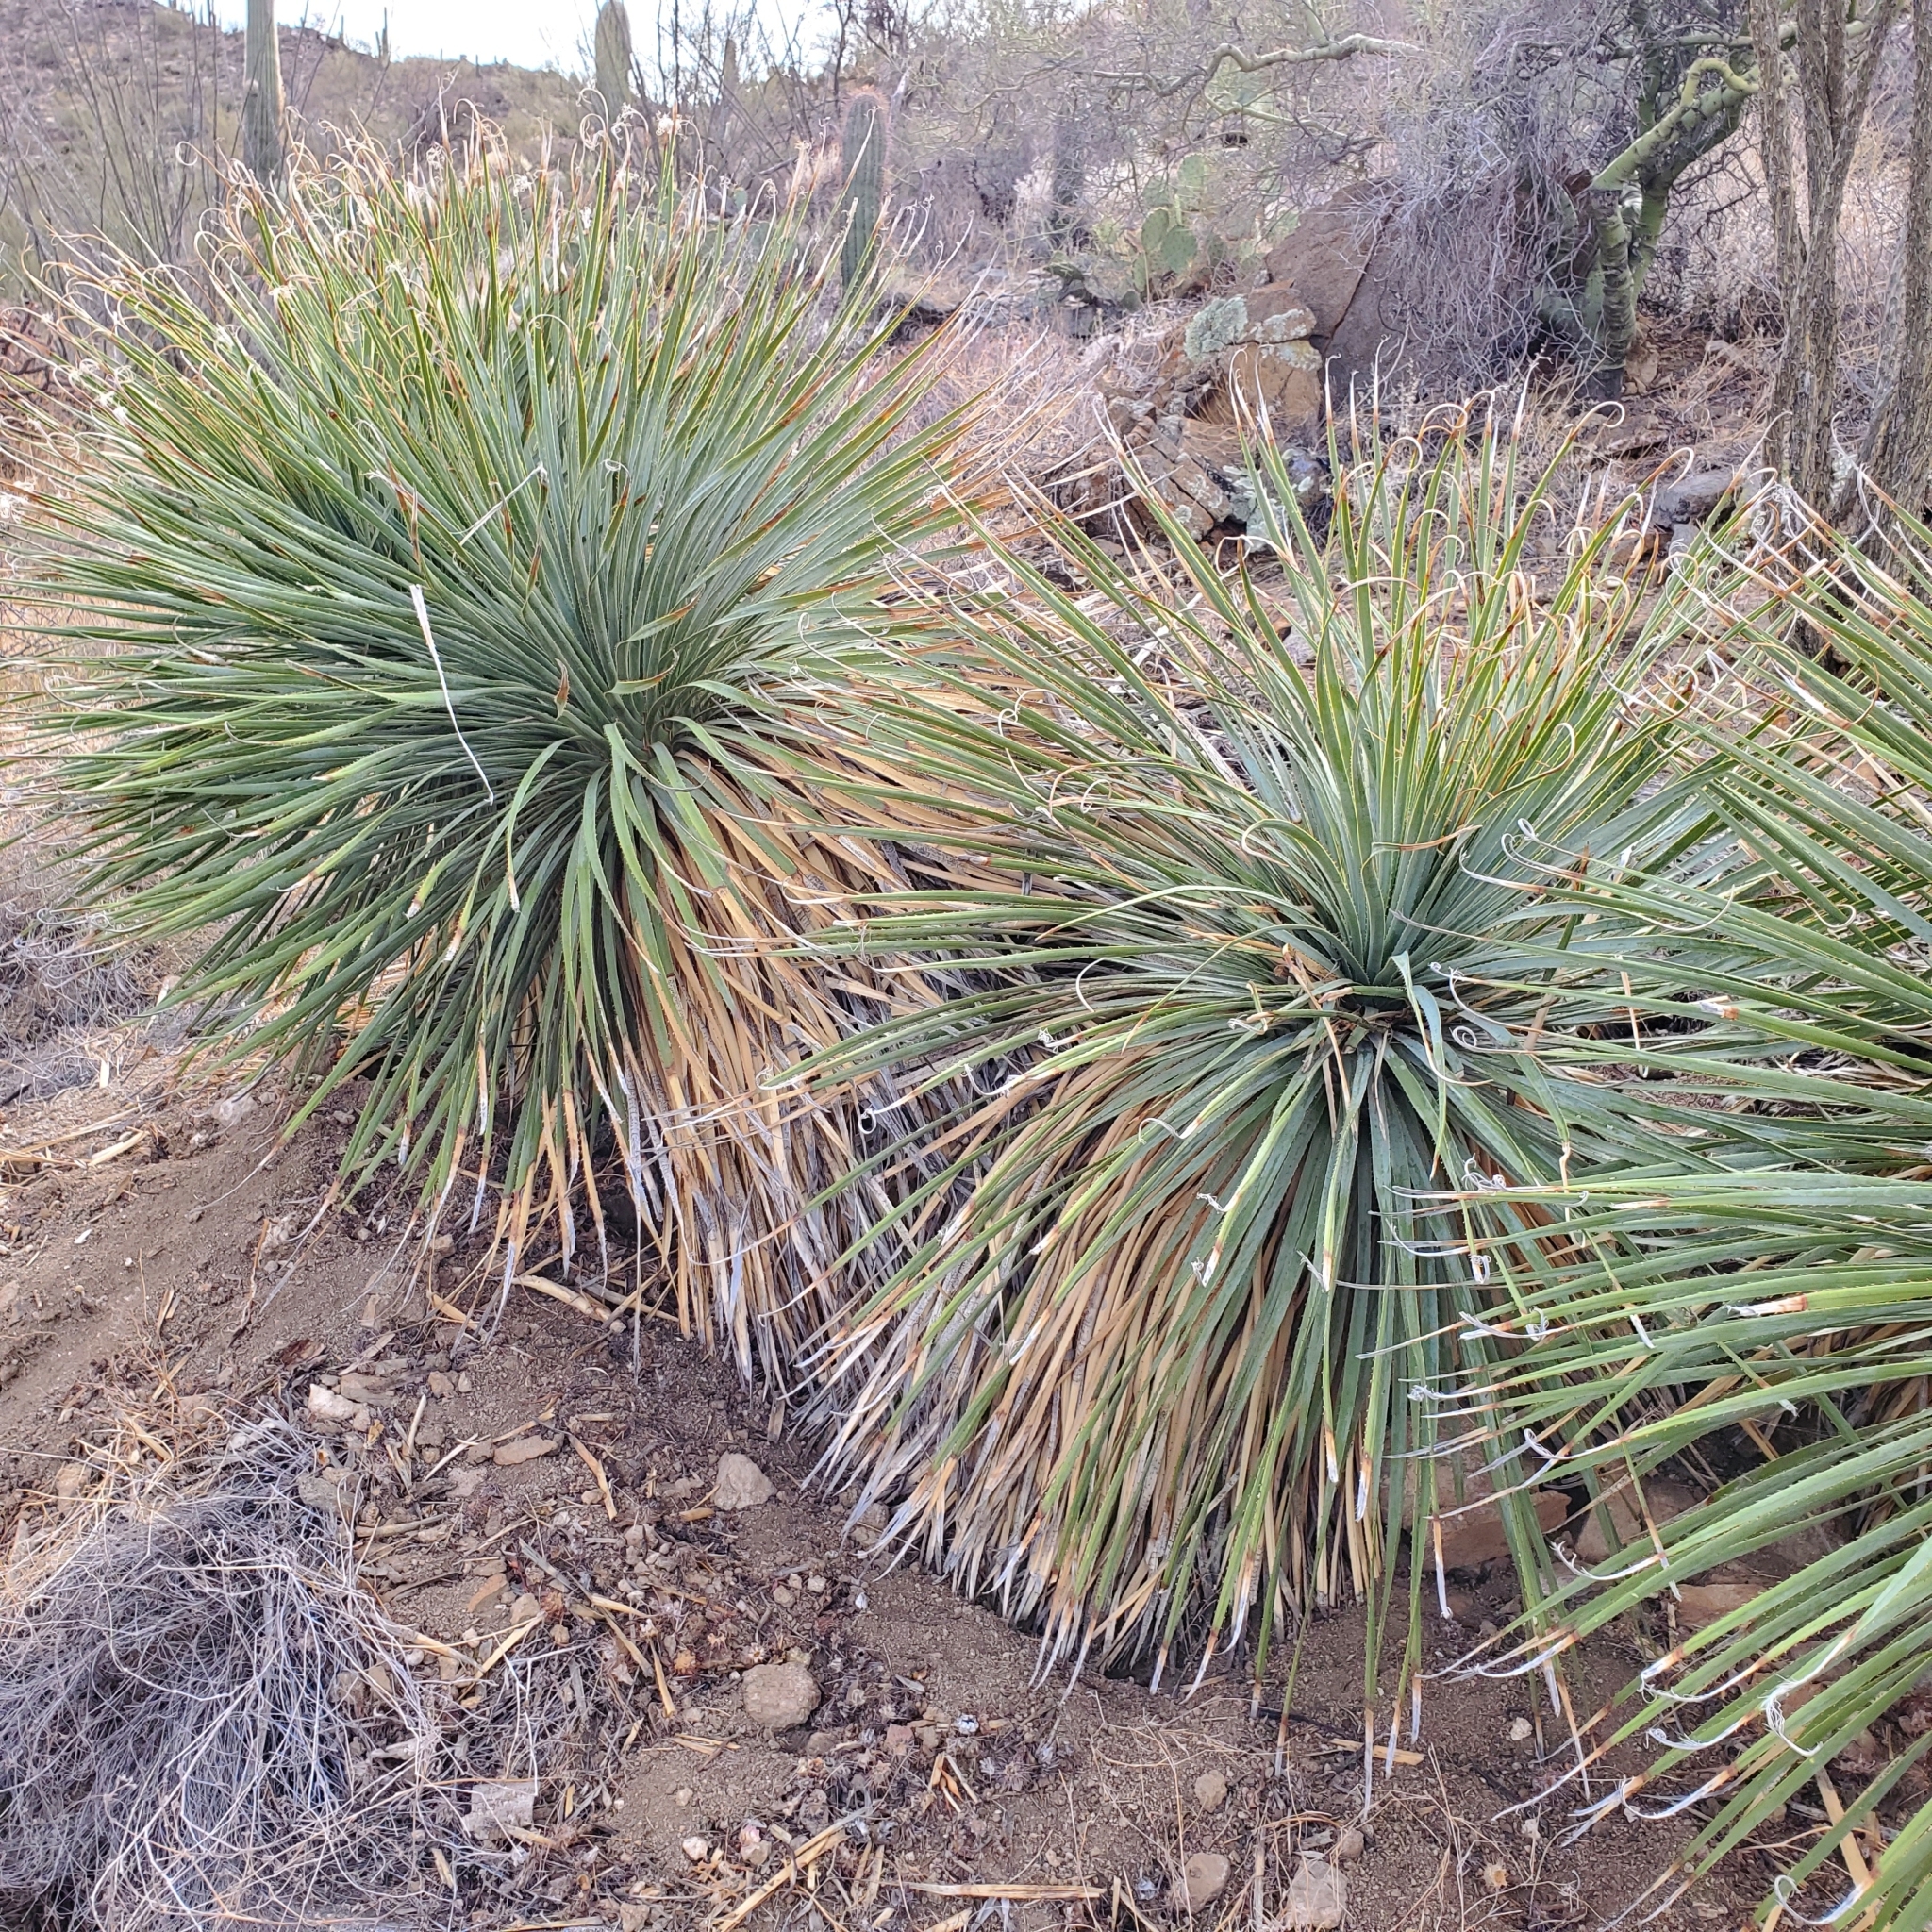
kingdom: Plantae
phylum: Tracheophyta
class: Liliopsida
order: Asparagales
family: Asparagaceae
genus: Dasylirion
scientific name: Dasylirion wheeleri
